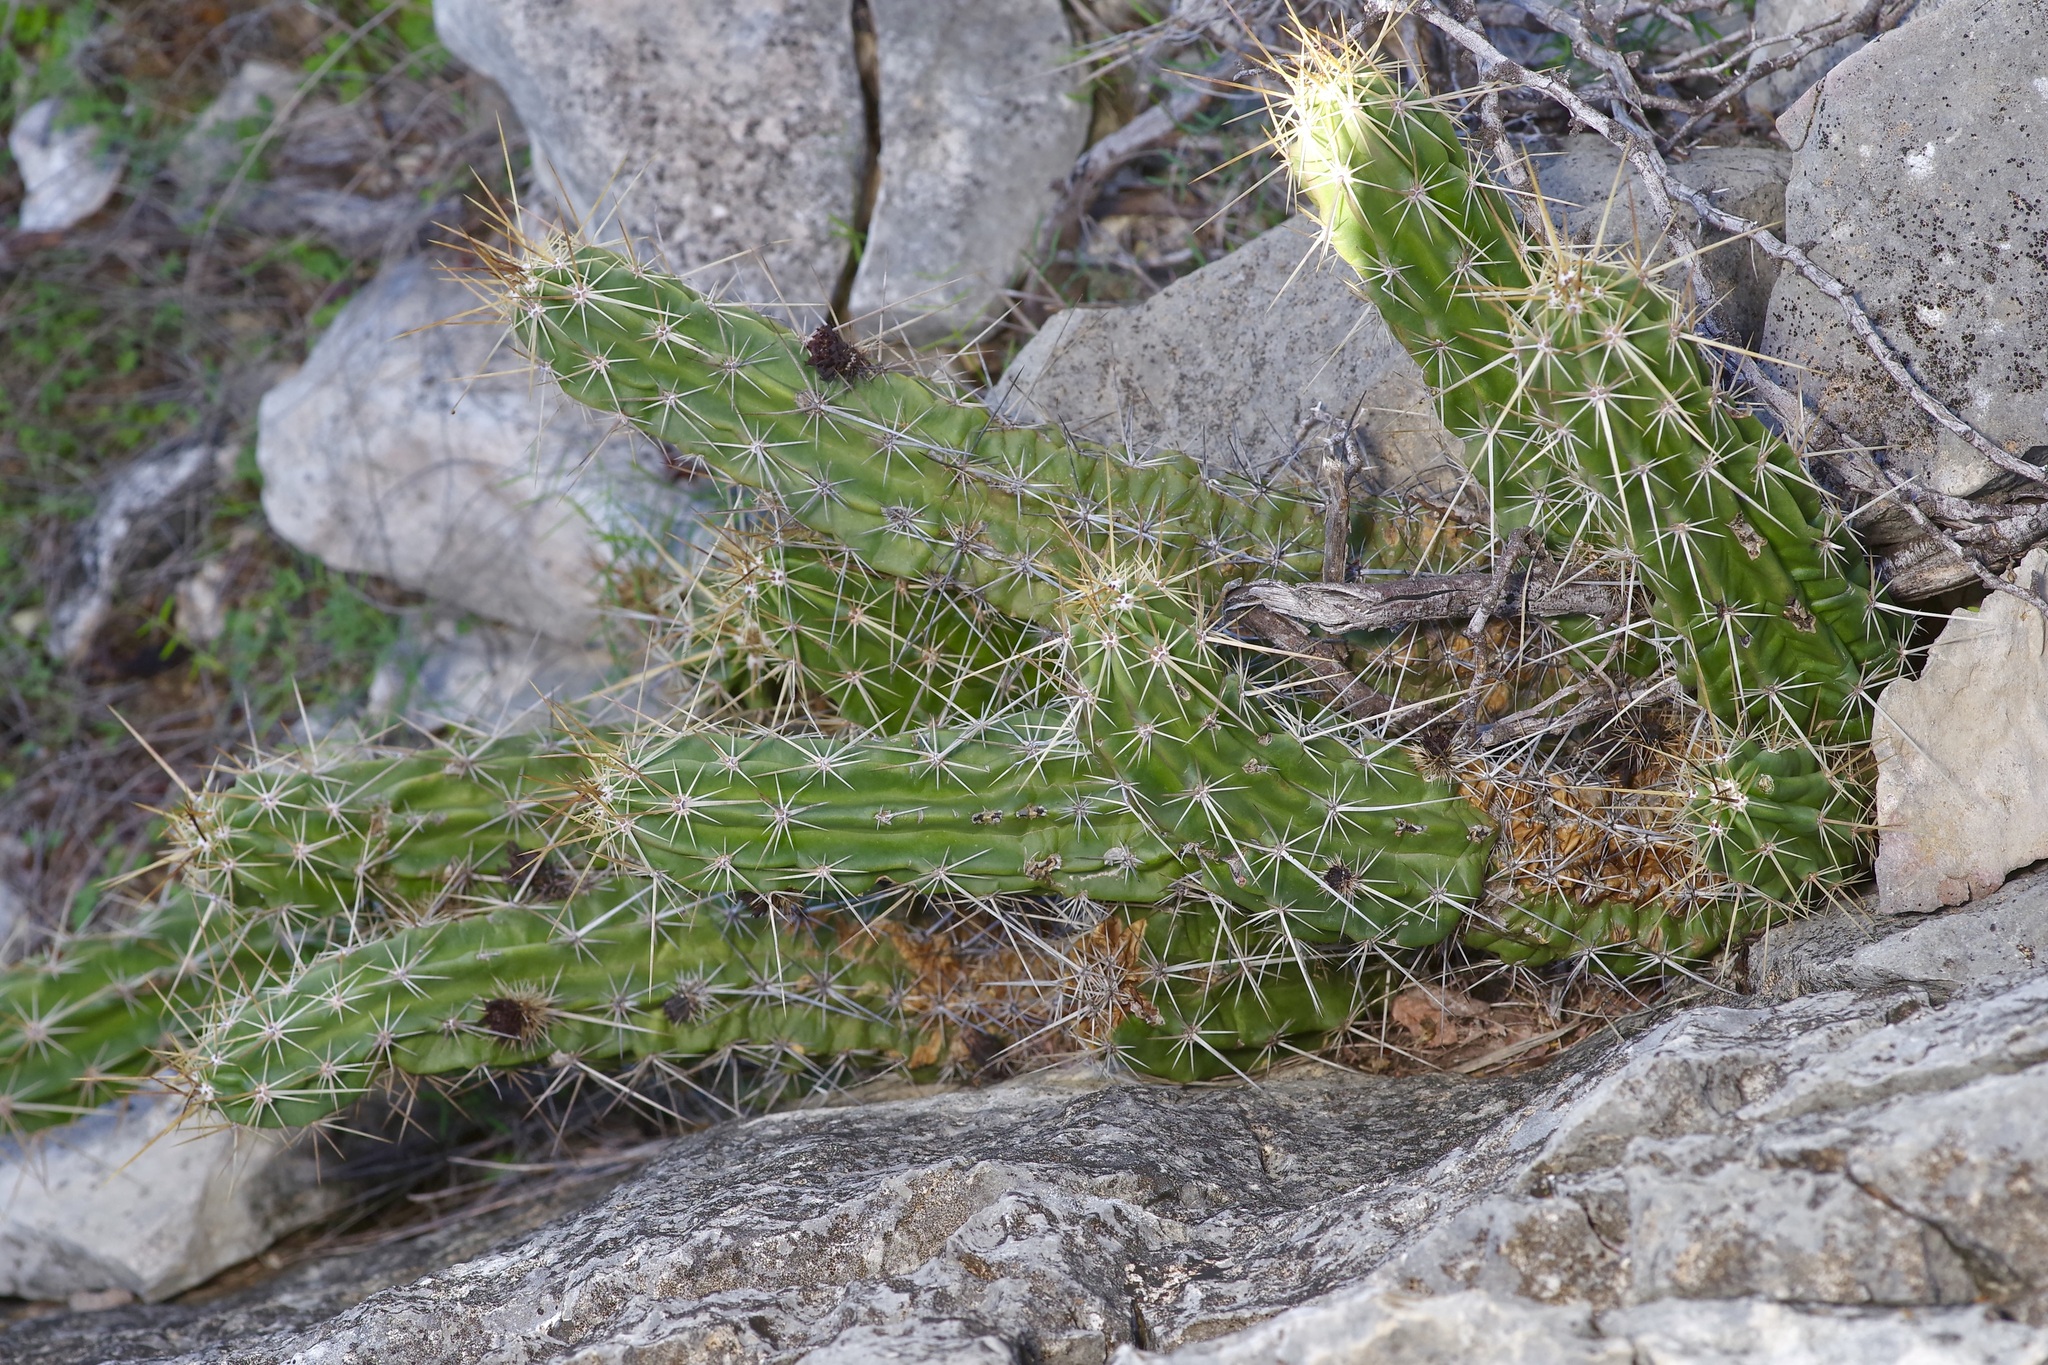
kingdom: Plantae
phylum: Tracheophyta
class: Magnoliopsida
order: Caryophyllales
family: Cactaceae
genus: Echinocereus
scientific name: Echinocereus enneacanthus
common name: Pitaya
